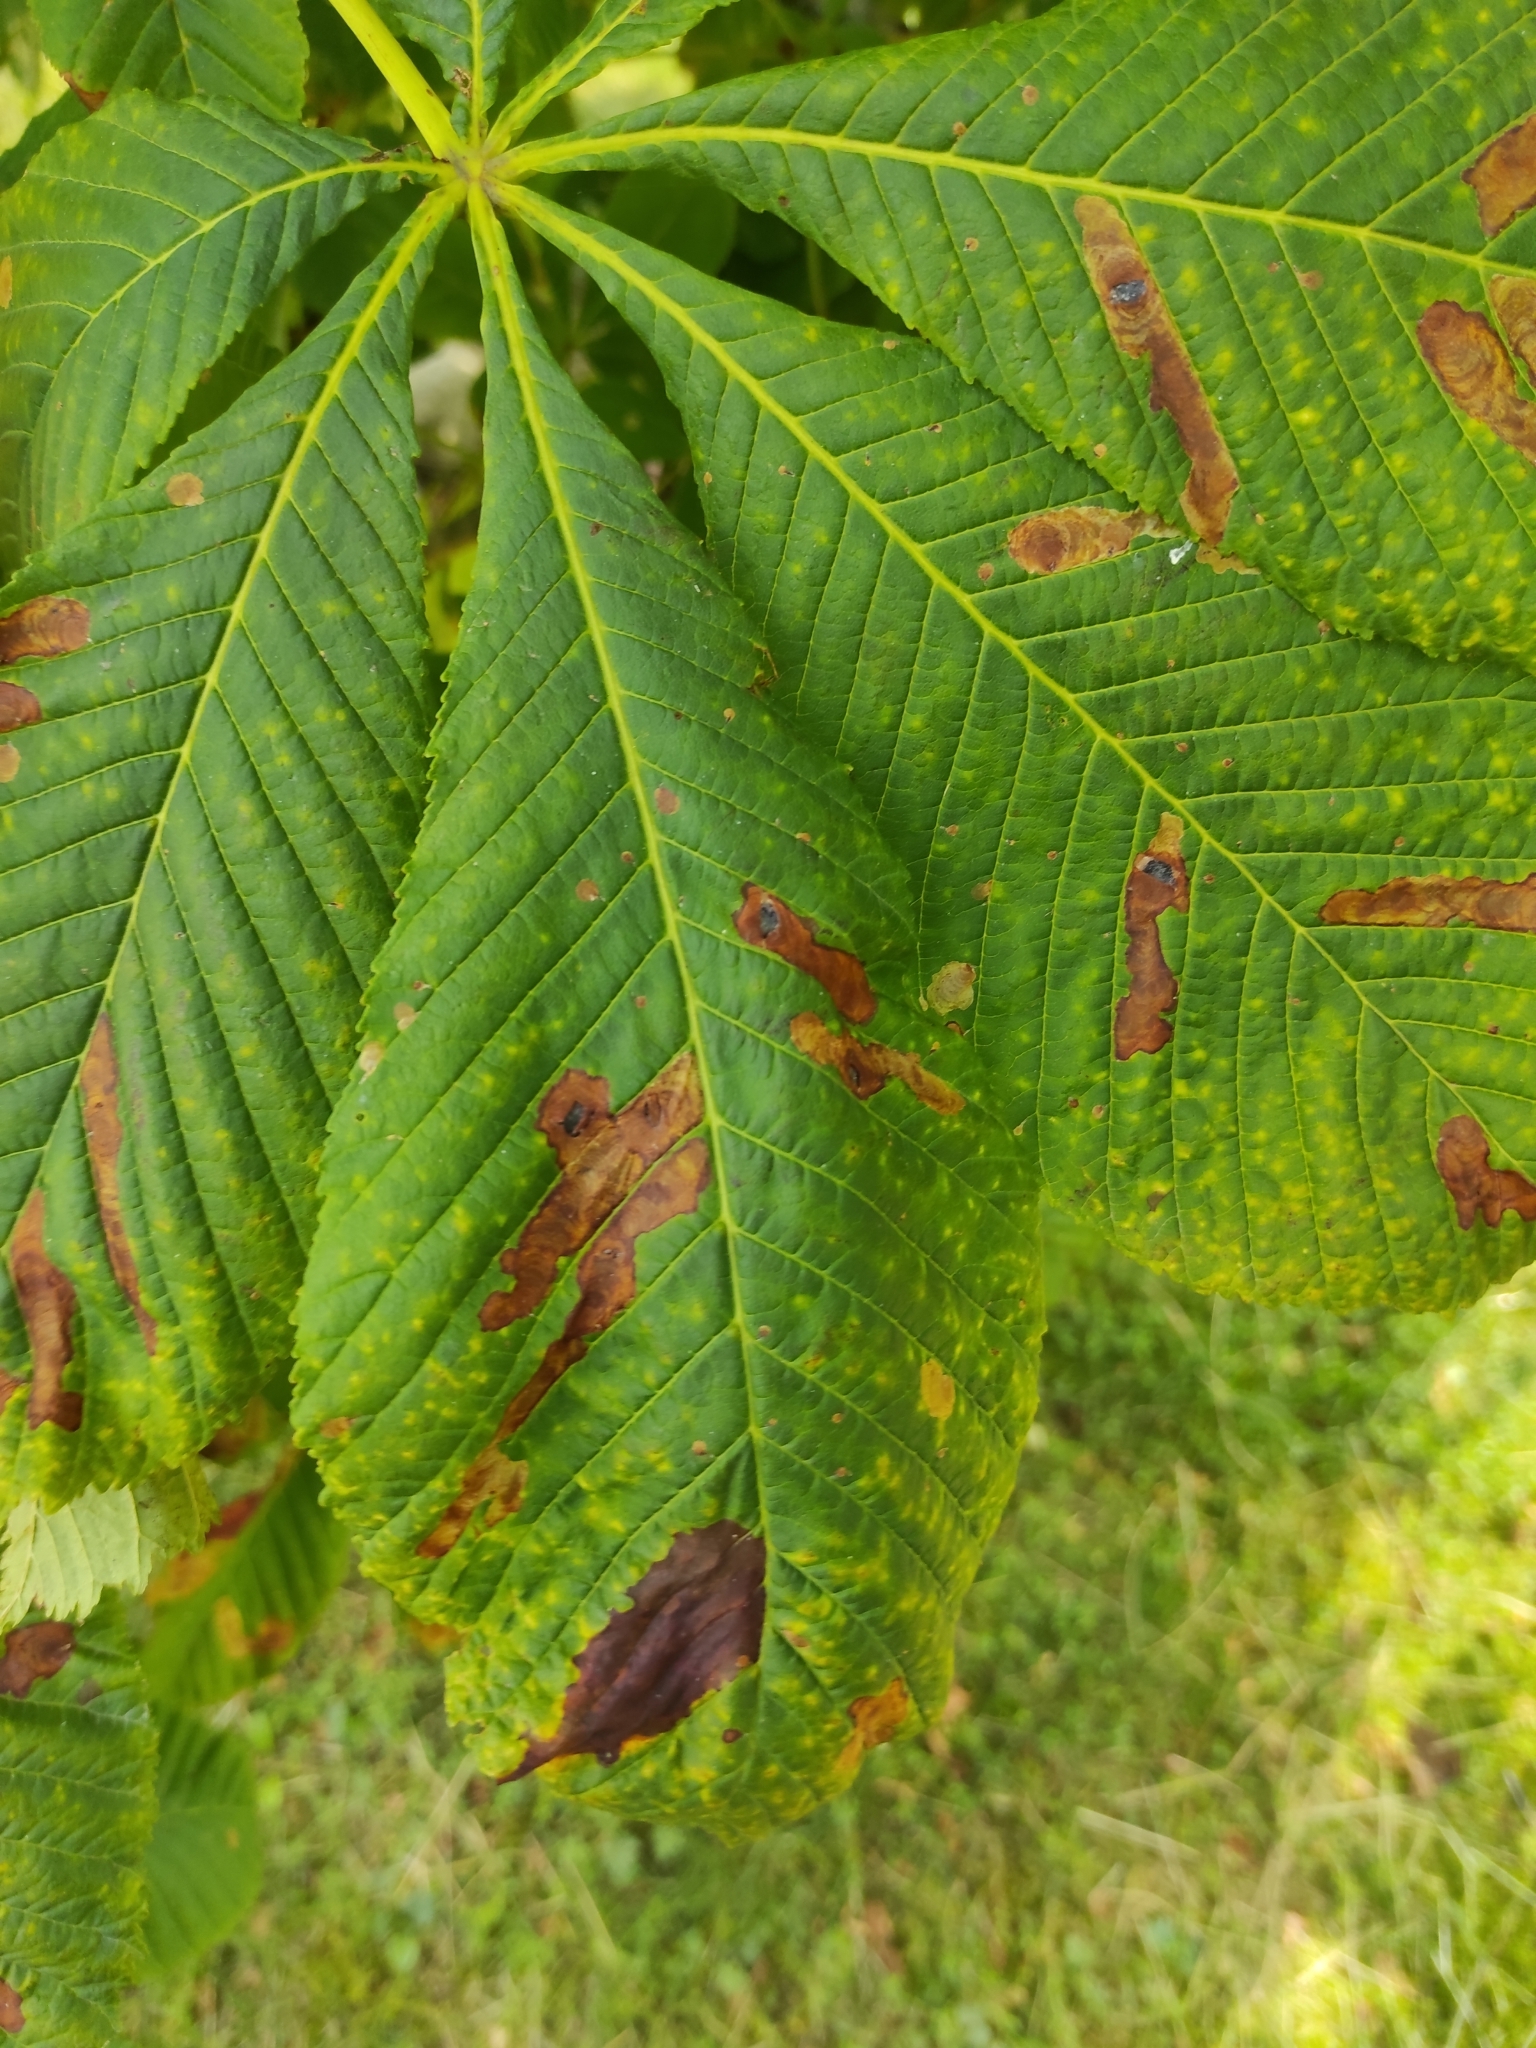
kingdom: Animalia
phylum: Arthropoda
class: Insecta
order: Lepidoptera
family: Gracillariidae
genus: Cameraria
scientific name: Cameraria ohridella
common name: Horse-chestnut leaf-miner
